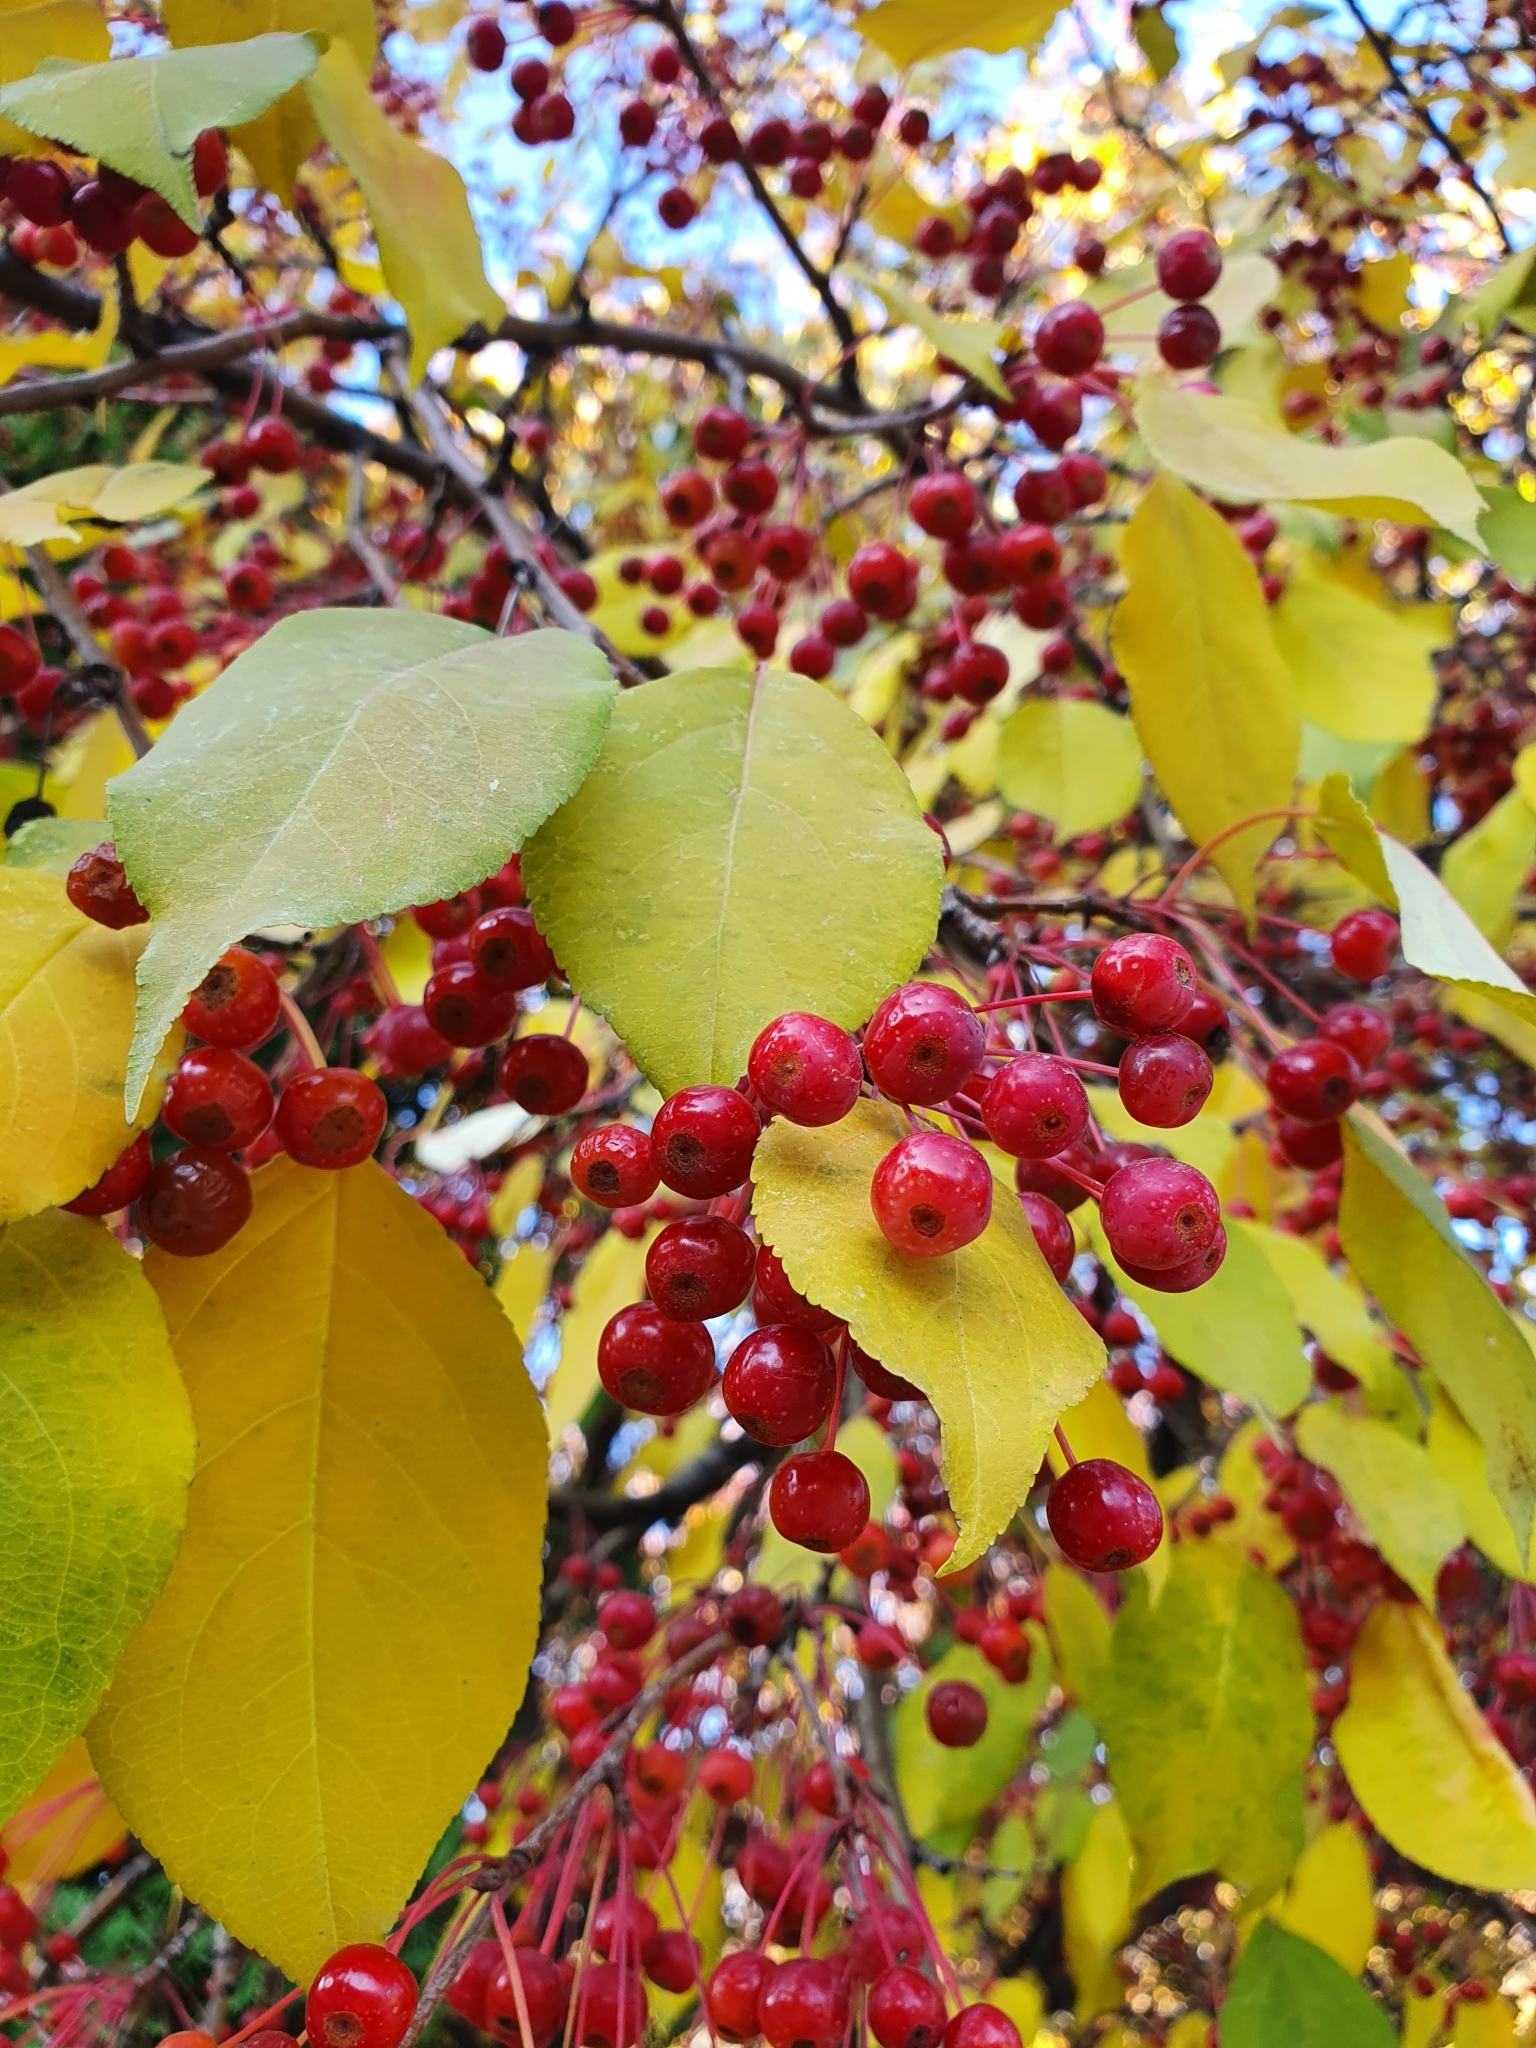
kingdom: Plantae
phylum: Tracheophyta
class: Magnoliopsida
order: Rosales
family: Rosaceae
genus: Malus
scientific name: Malus baccata
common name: Siberian crab
